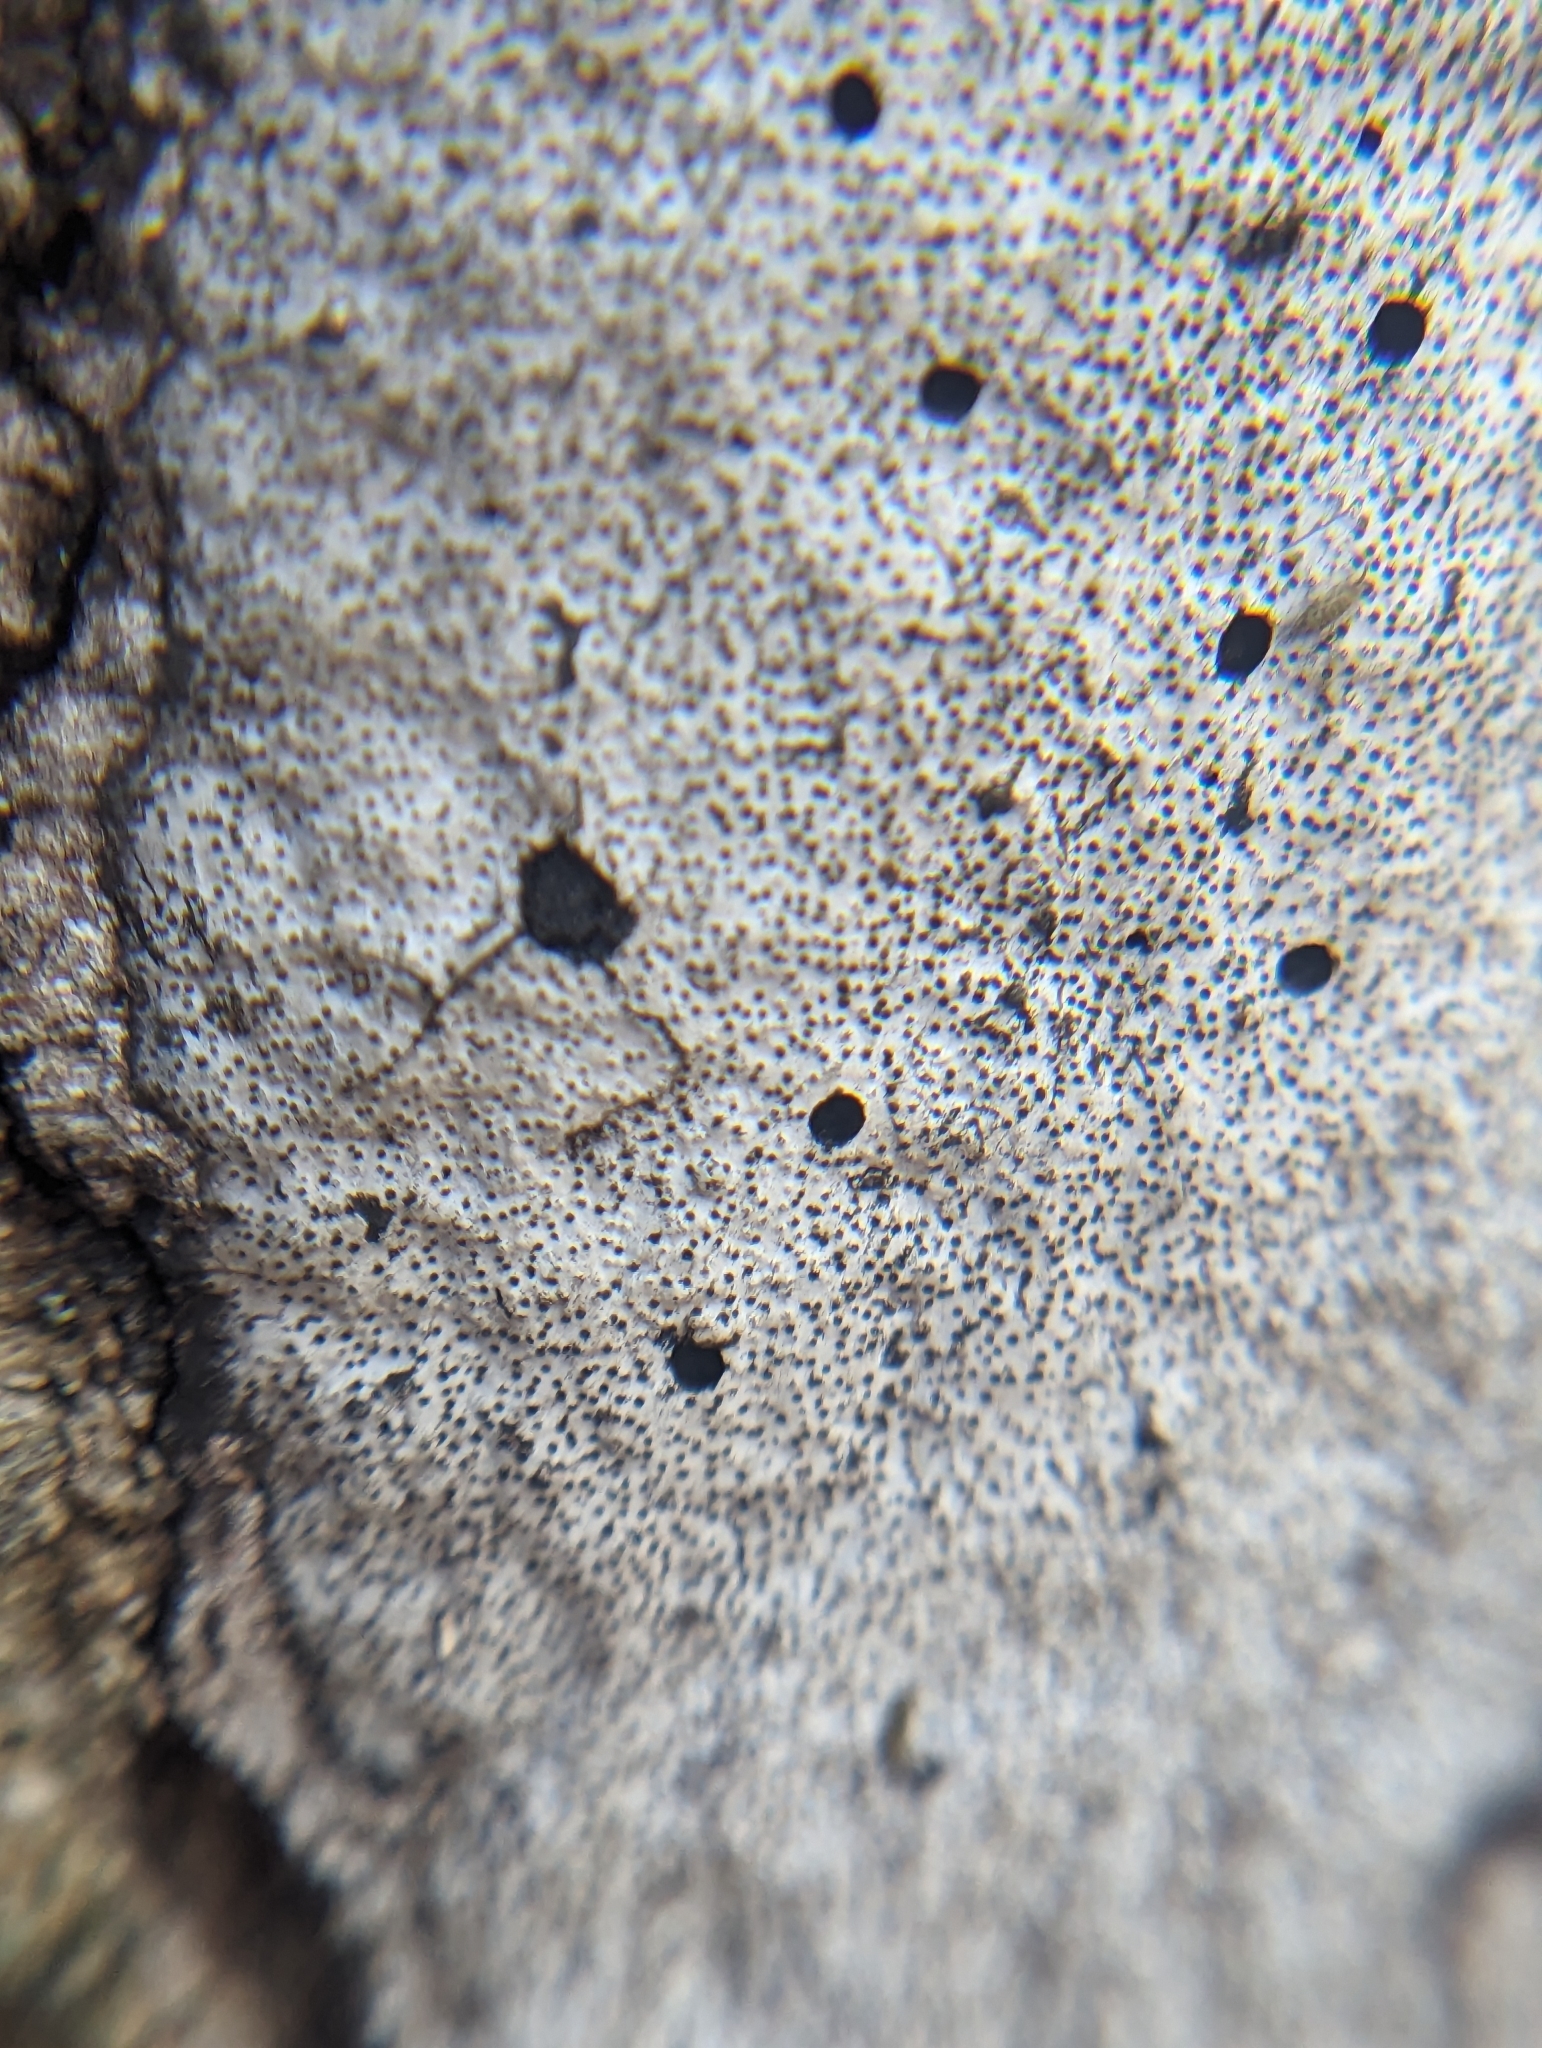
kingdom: Fungi
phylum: Ascomycota
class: Sordariomycetes
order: Xylariales
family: Graphostromataceae
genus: Biscogniauxia
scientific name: Biscogniauxia atropunctata
